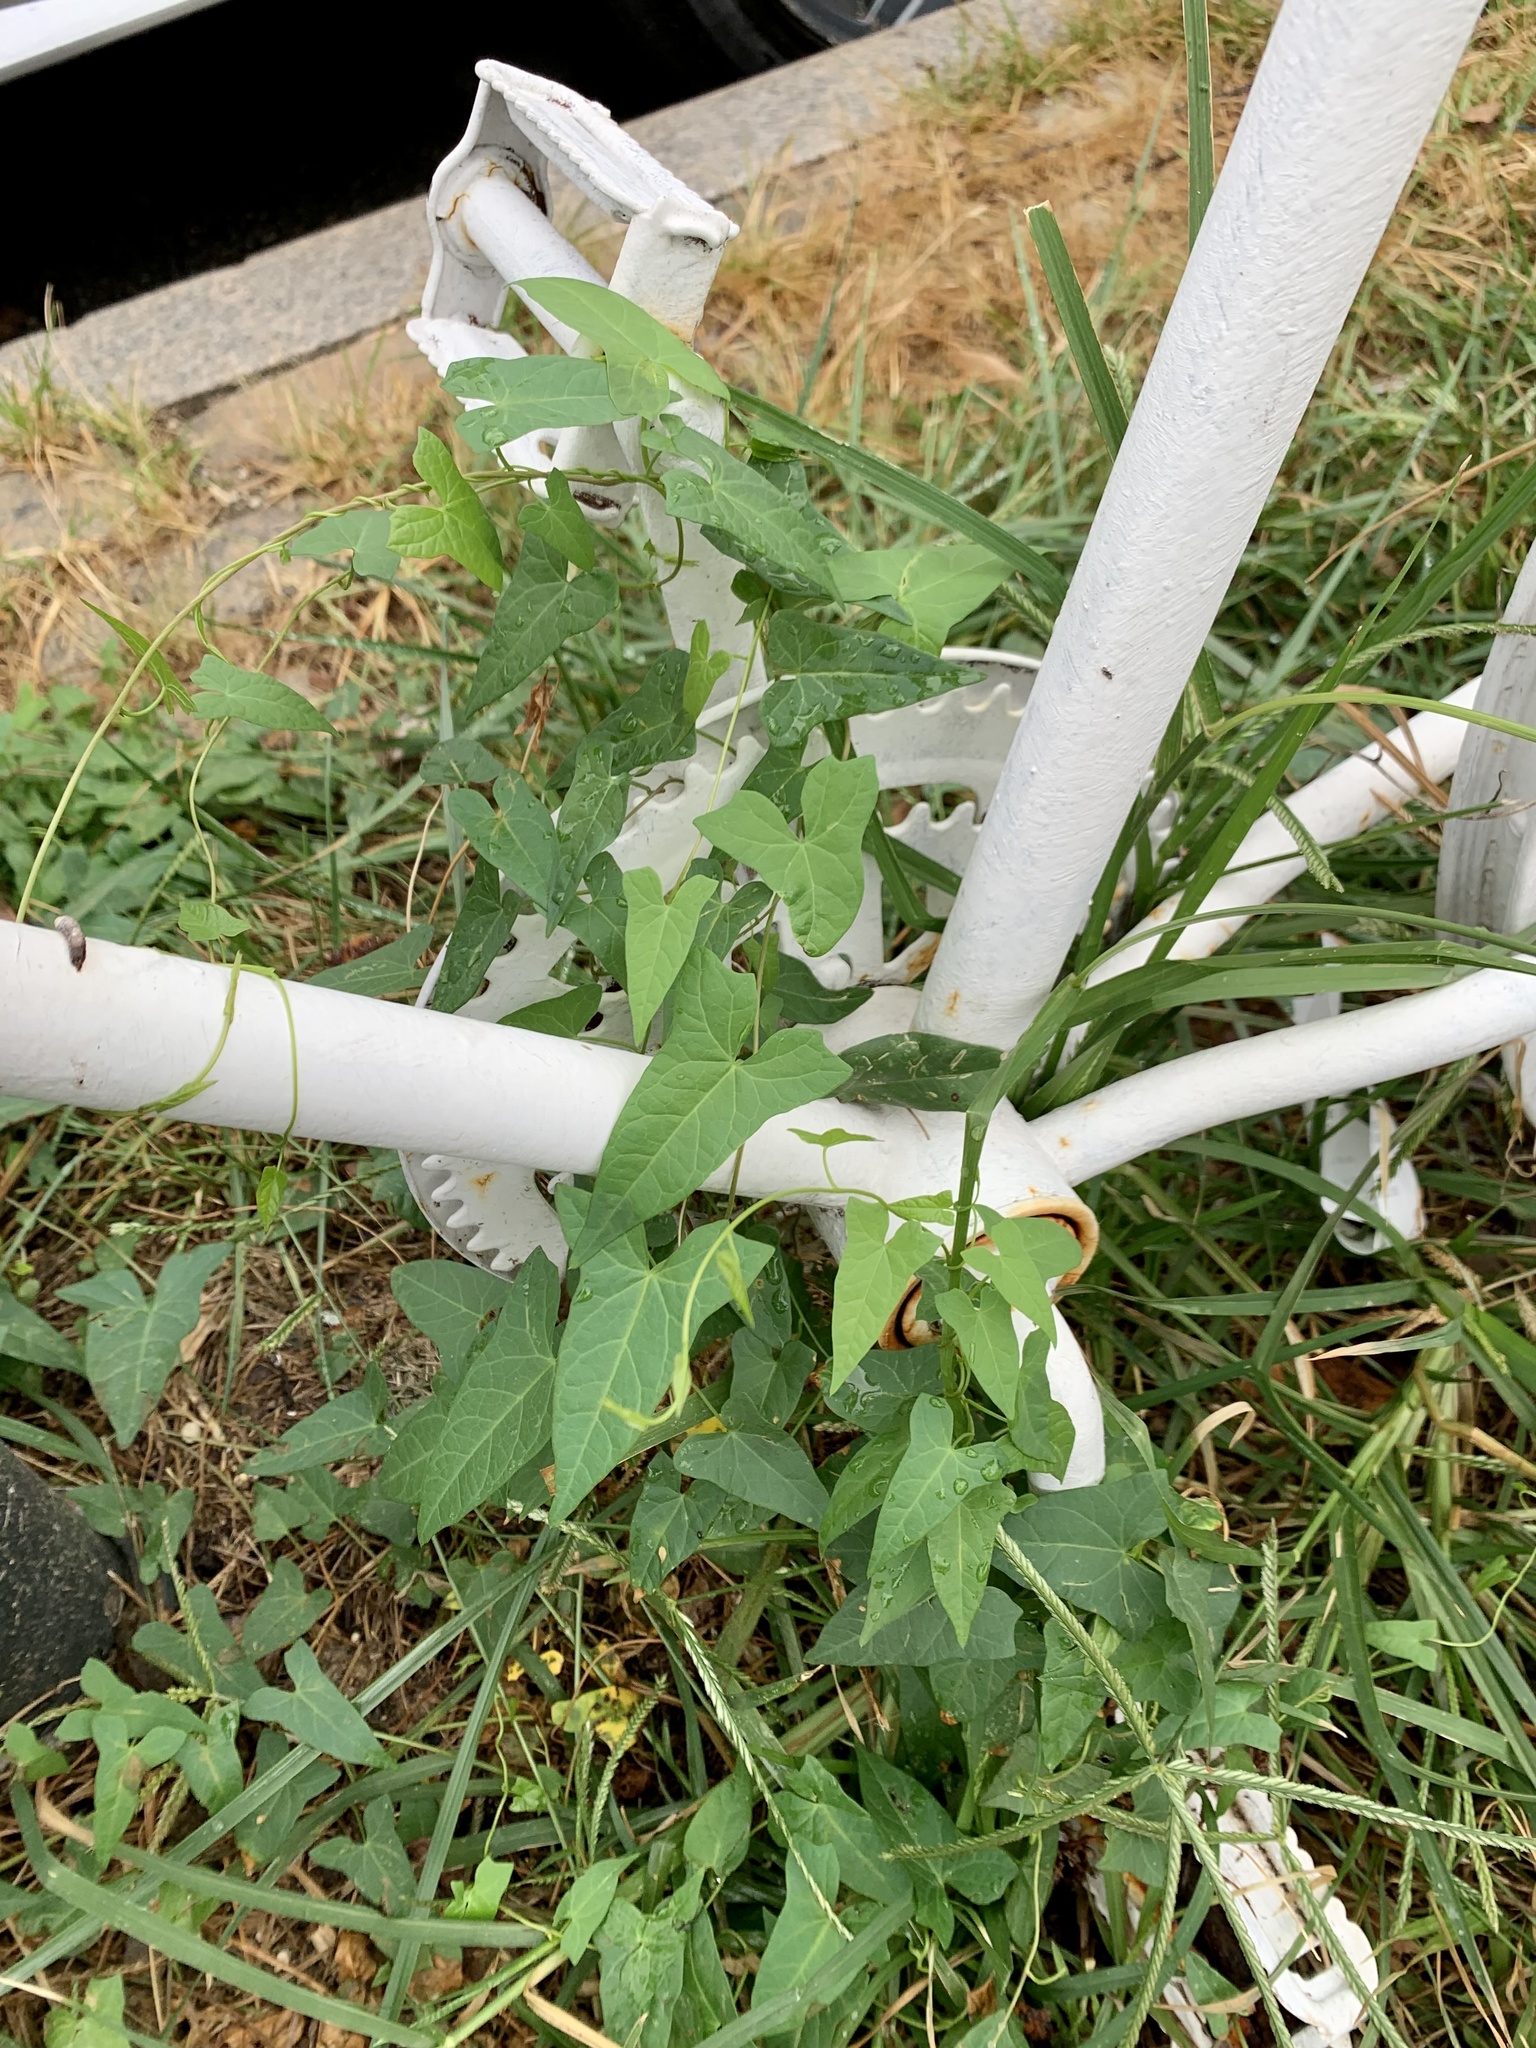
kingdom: Plantae
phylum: Tracheophyta
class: Magnoliopsida
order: Solanales
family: Convolvulaceae
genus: Calystegia
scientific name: Calystegia sepium
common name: Hedge bindweed
